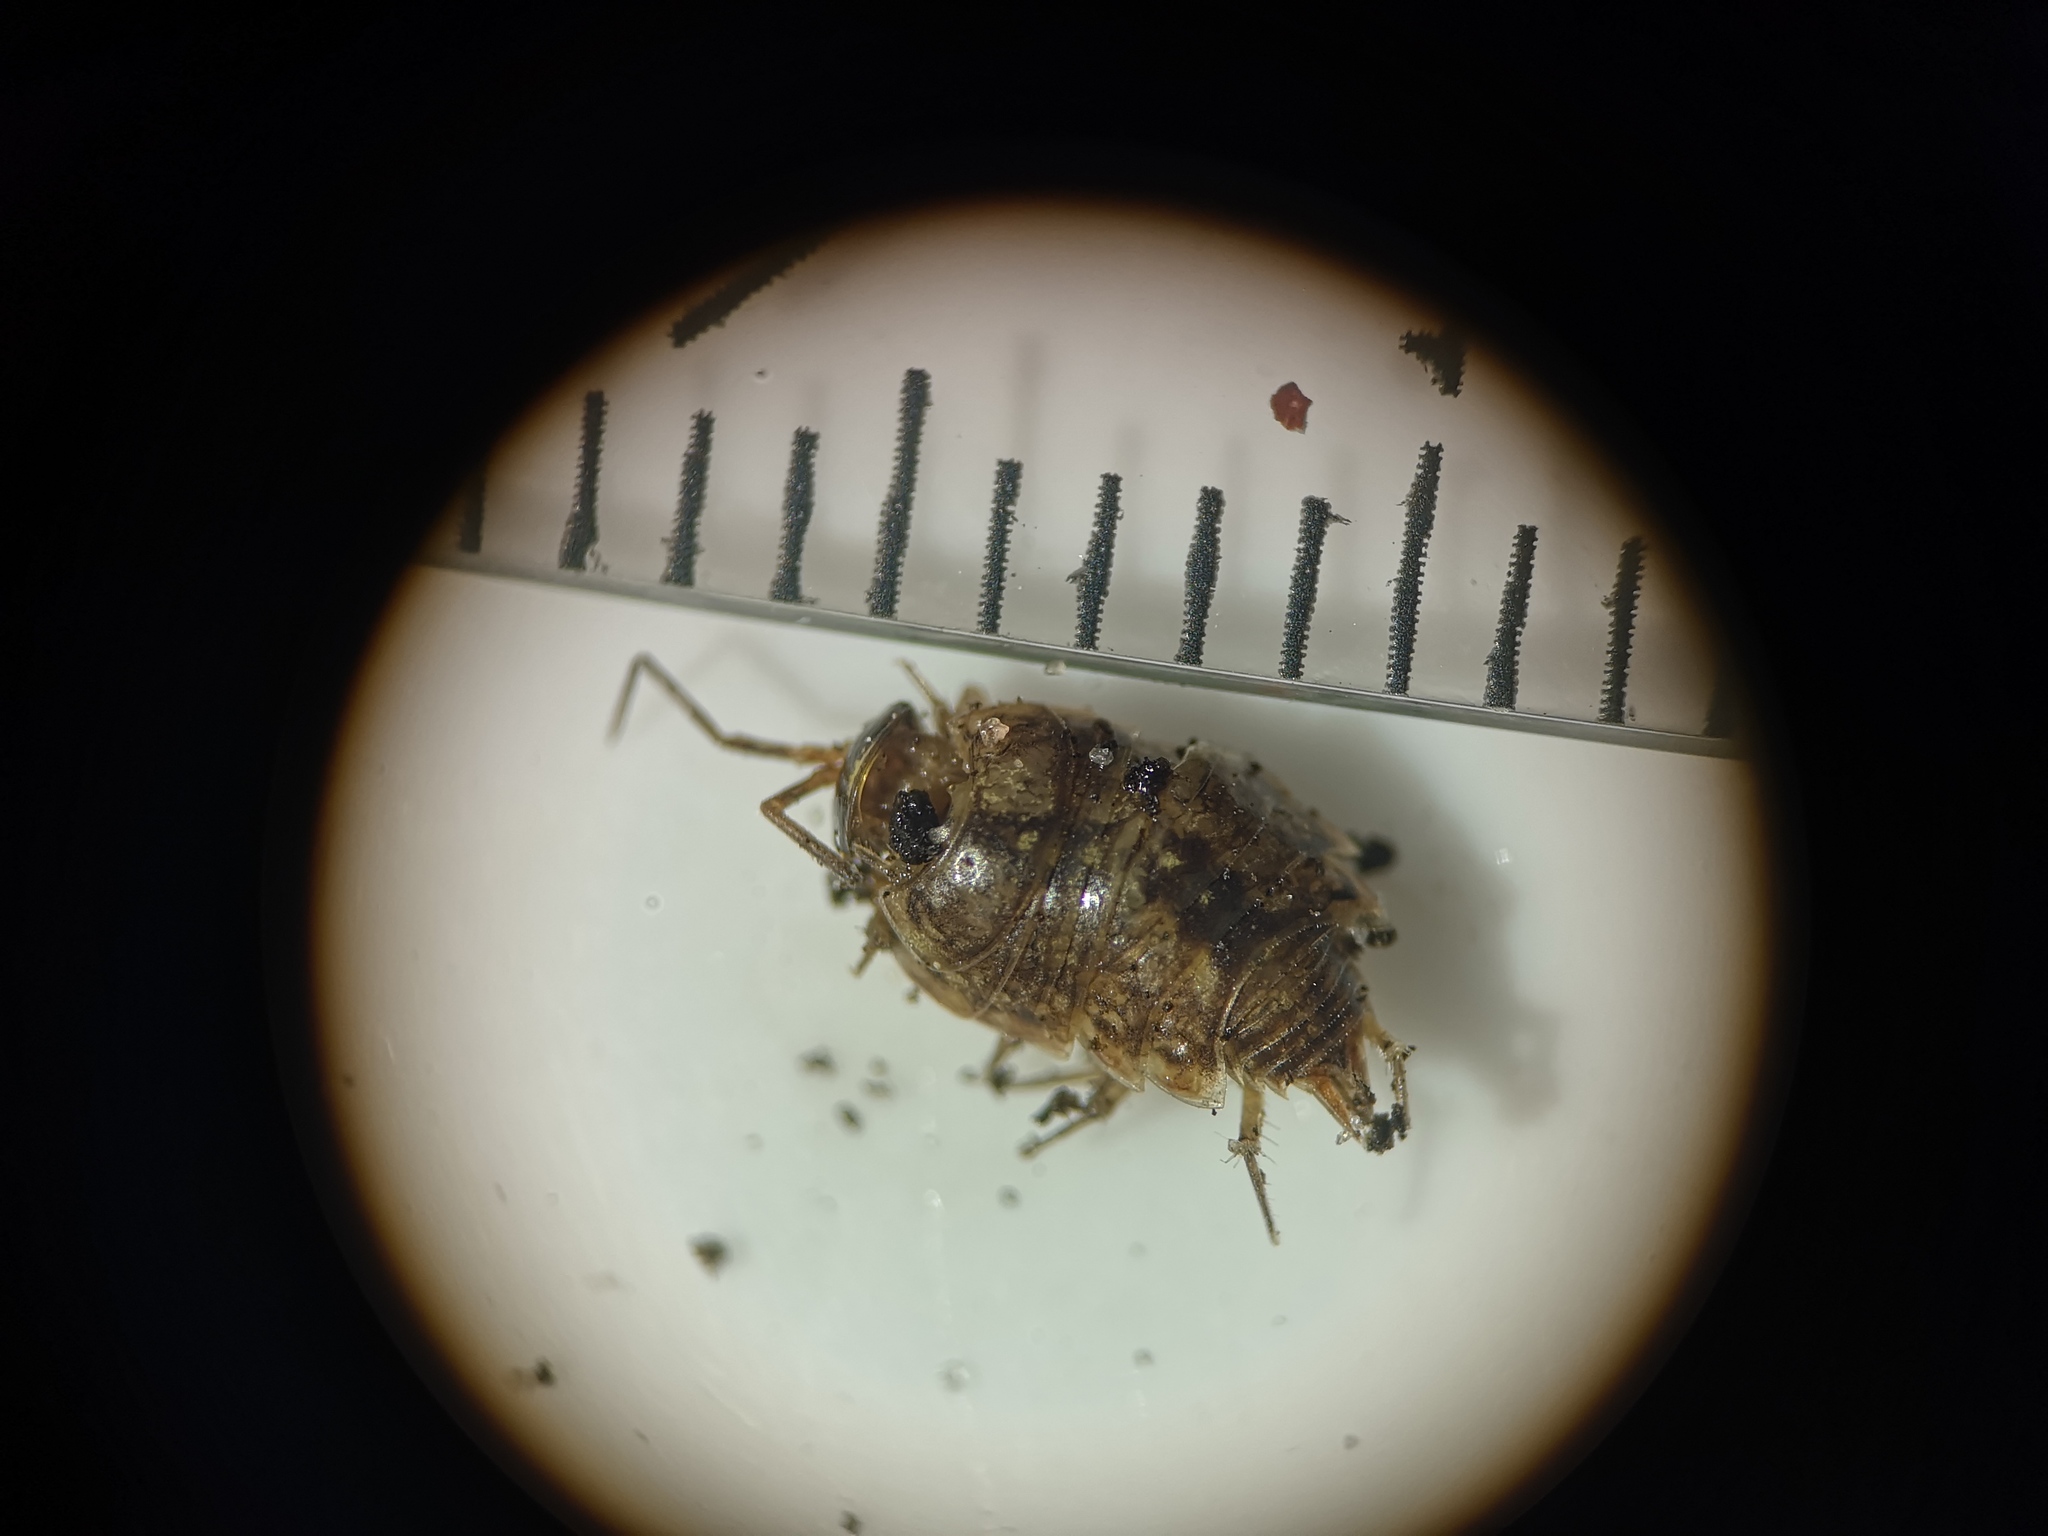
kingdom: Animalia
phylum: Arthropoda
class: Malacostraca
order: Isopoda
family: Philosciidae
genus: Philoscia
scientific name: Philoscia muscorum
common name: Common striped woodlouse
